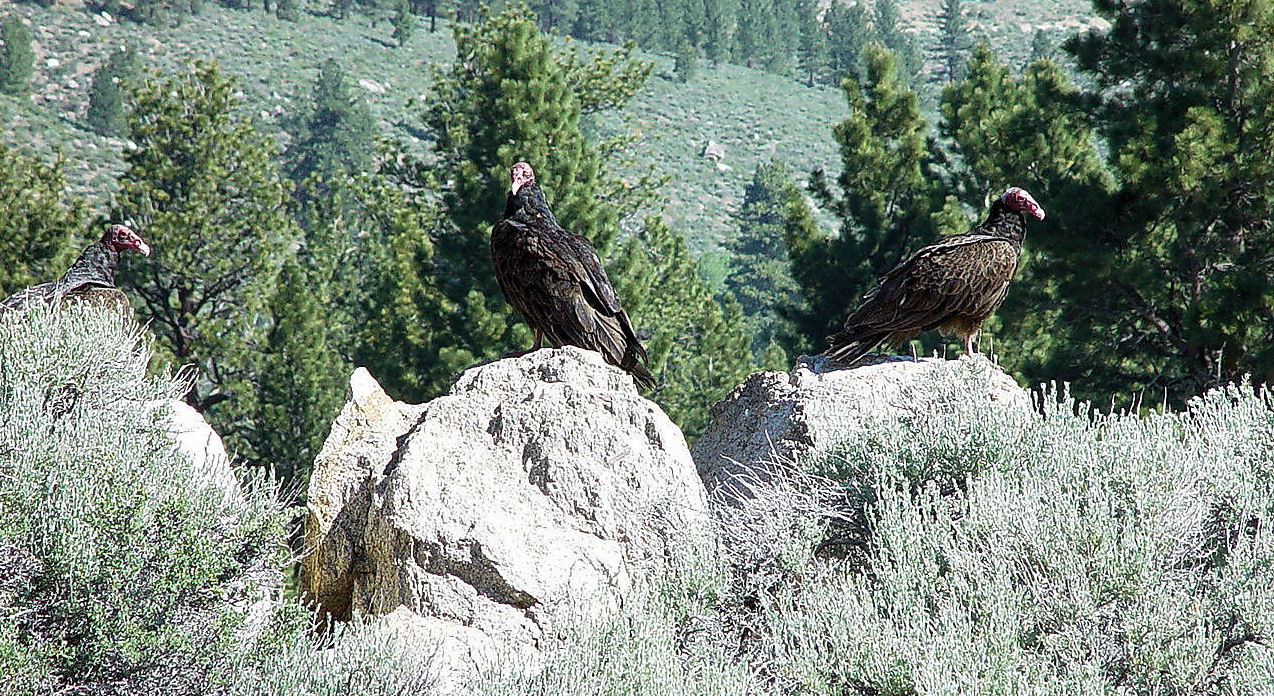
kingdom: Animalia
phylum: Chordata
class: Aves
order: Accipitriformes
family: Cathartidae
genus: Cathartes
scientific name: Cathartes aura
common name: Turkey vulture
